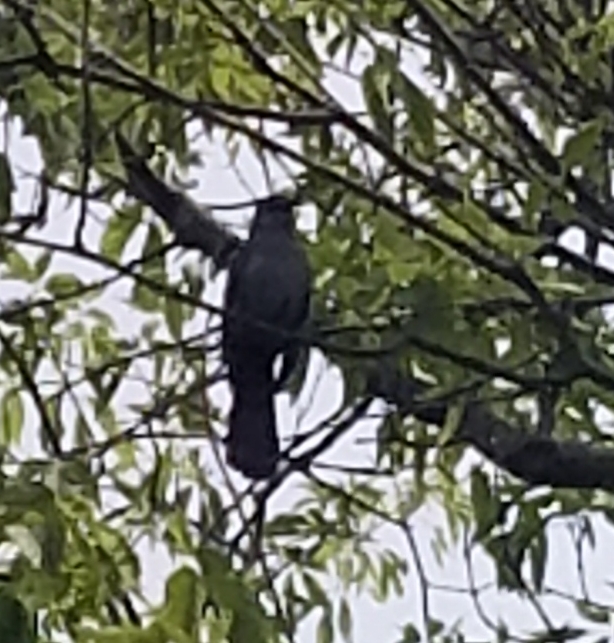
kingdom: Animalia
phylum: Chordata
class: Aves
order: Passeriformes
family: Mimidae
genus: Dumetella
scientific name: Dumetella carolinensis
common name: Gray catbird
